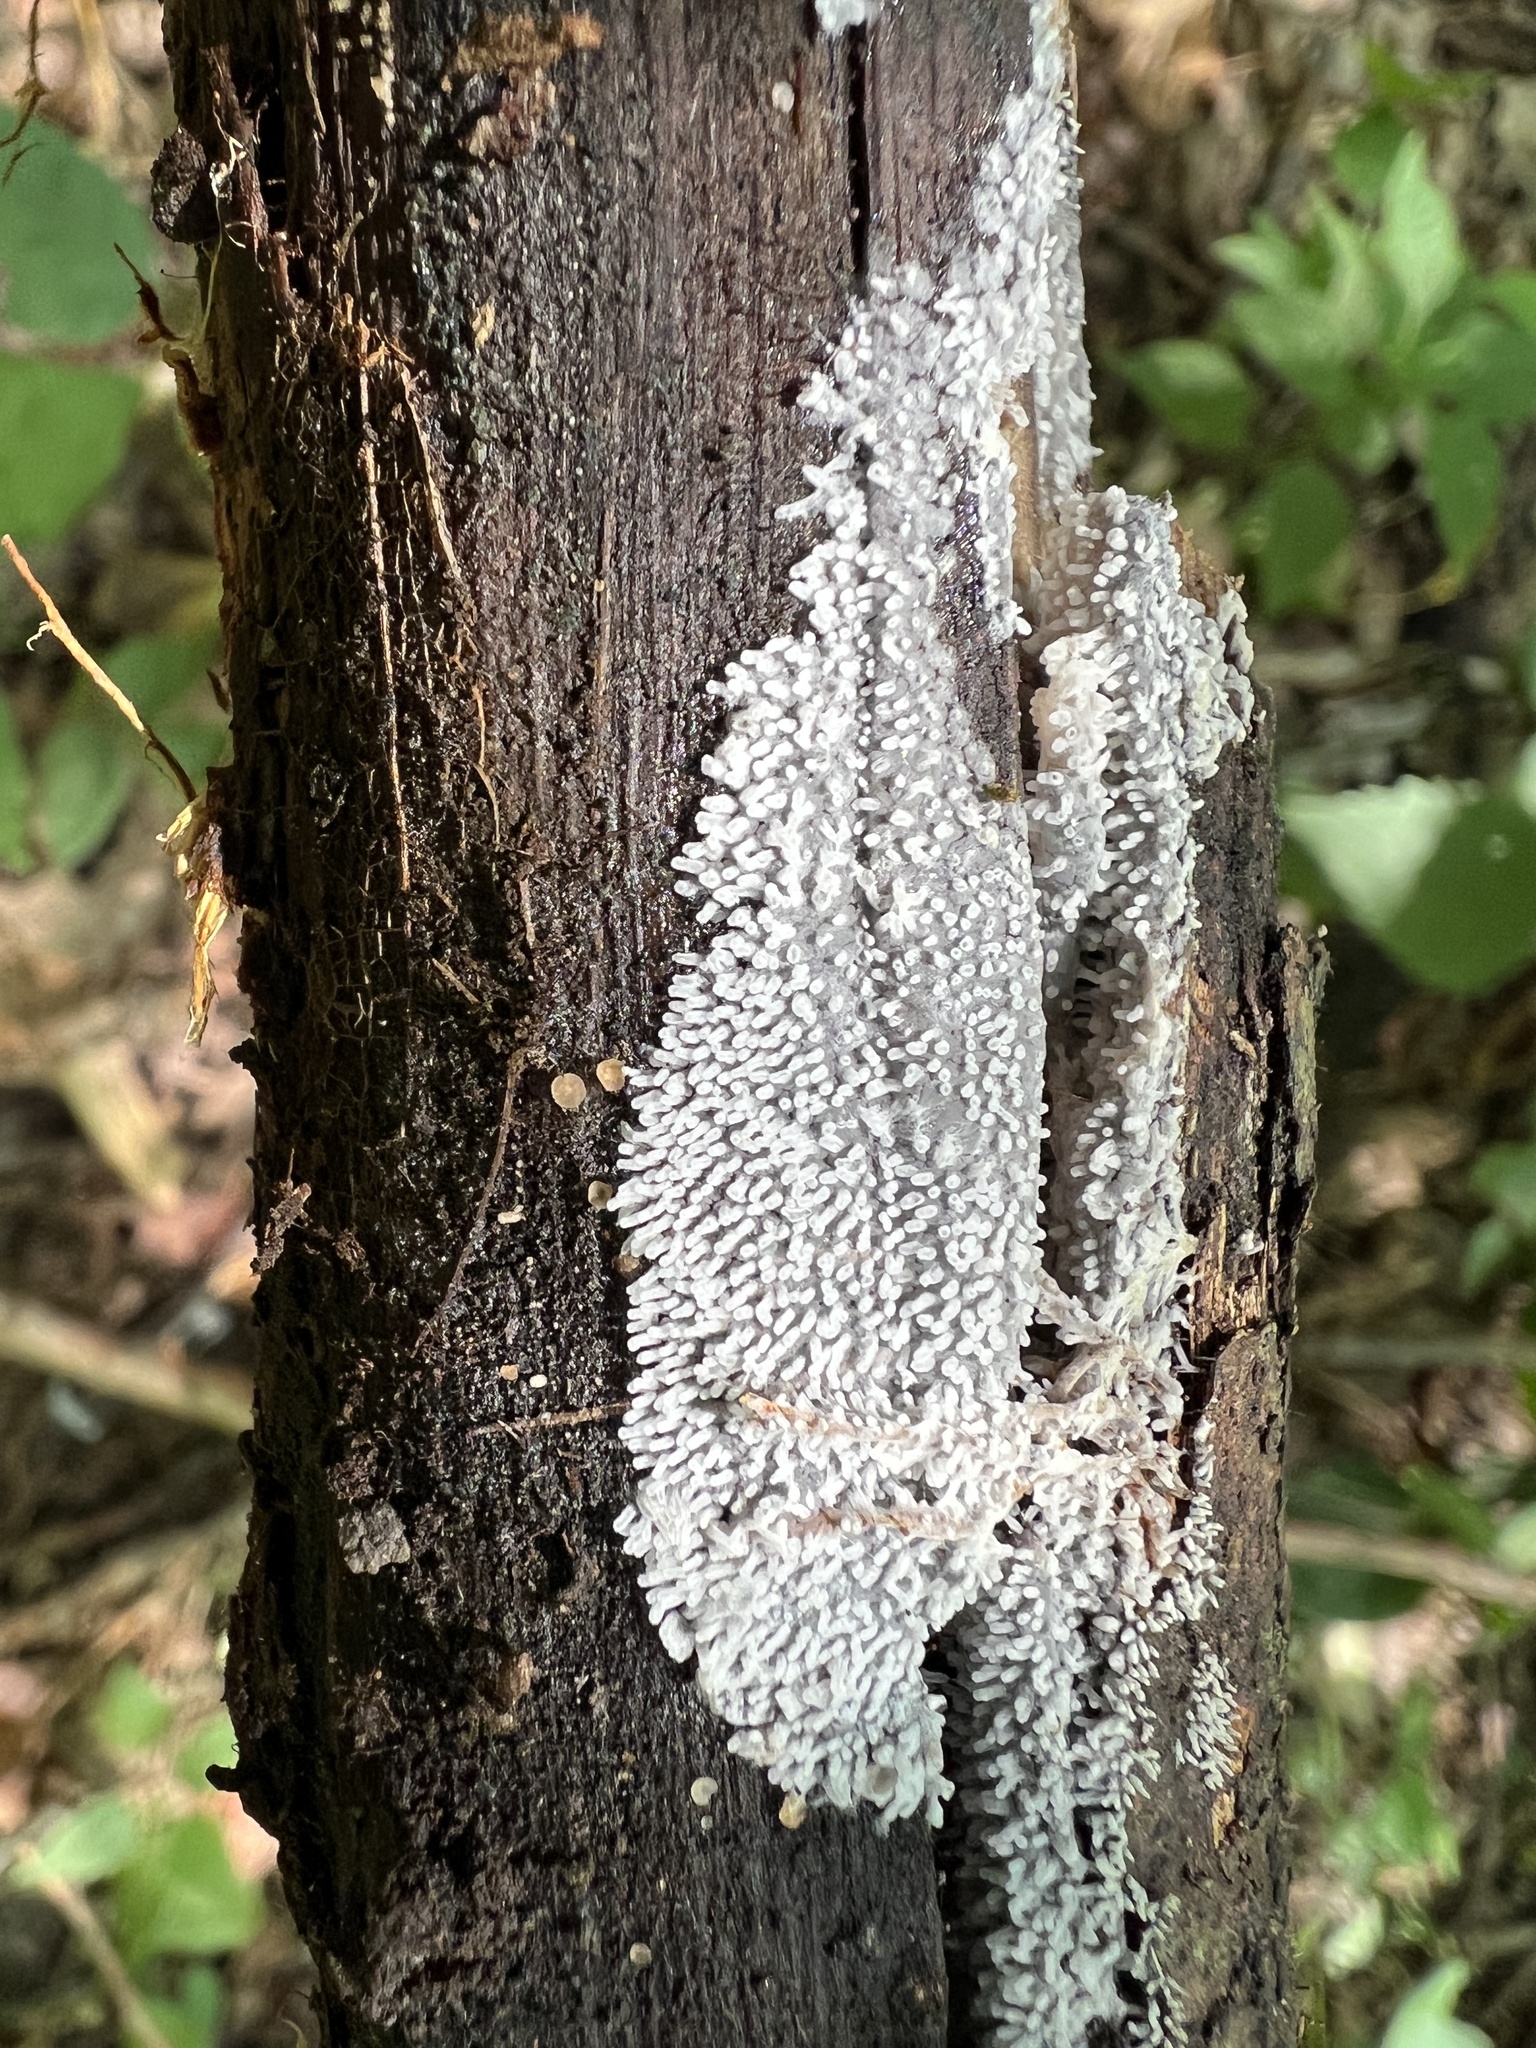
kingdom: Protozoa
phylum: Mycetozoa
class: Protosteliomycetes
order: Ceratiomyxales
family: Ceratiomyxaceae
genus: Ceratiomyxa
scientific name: Ceratiomyxa fruticulosa
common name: Honeycomb coral slime mold
